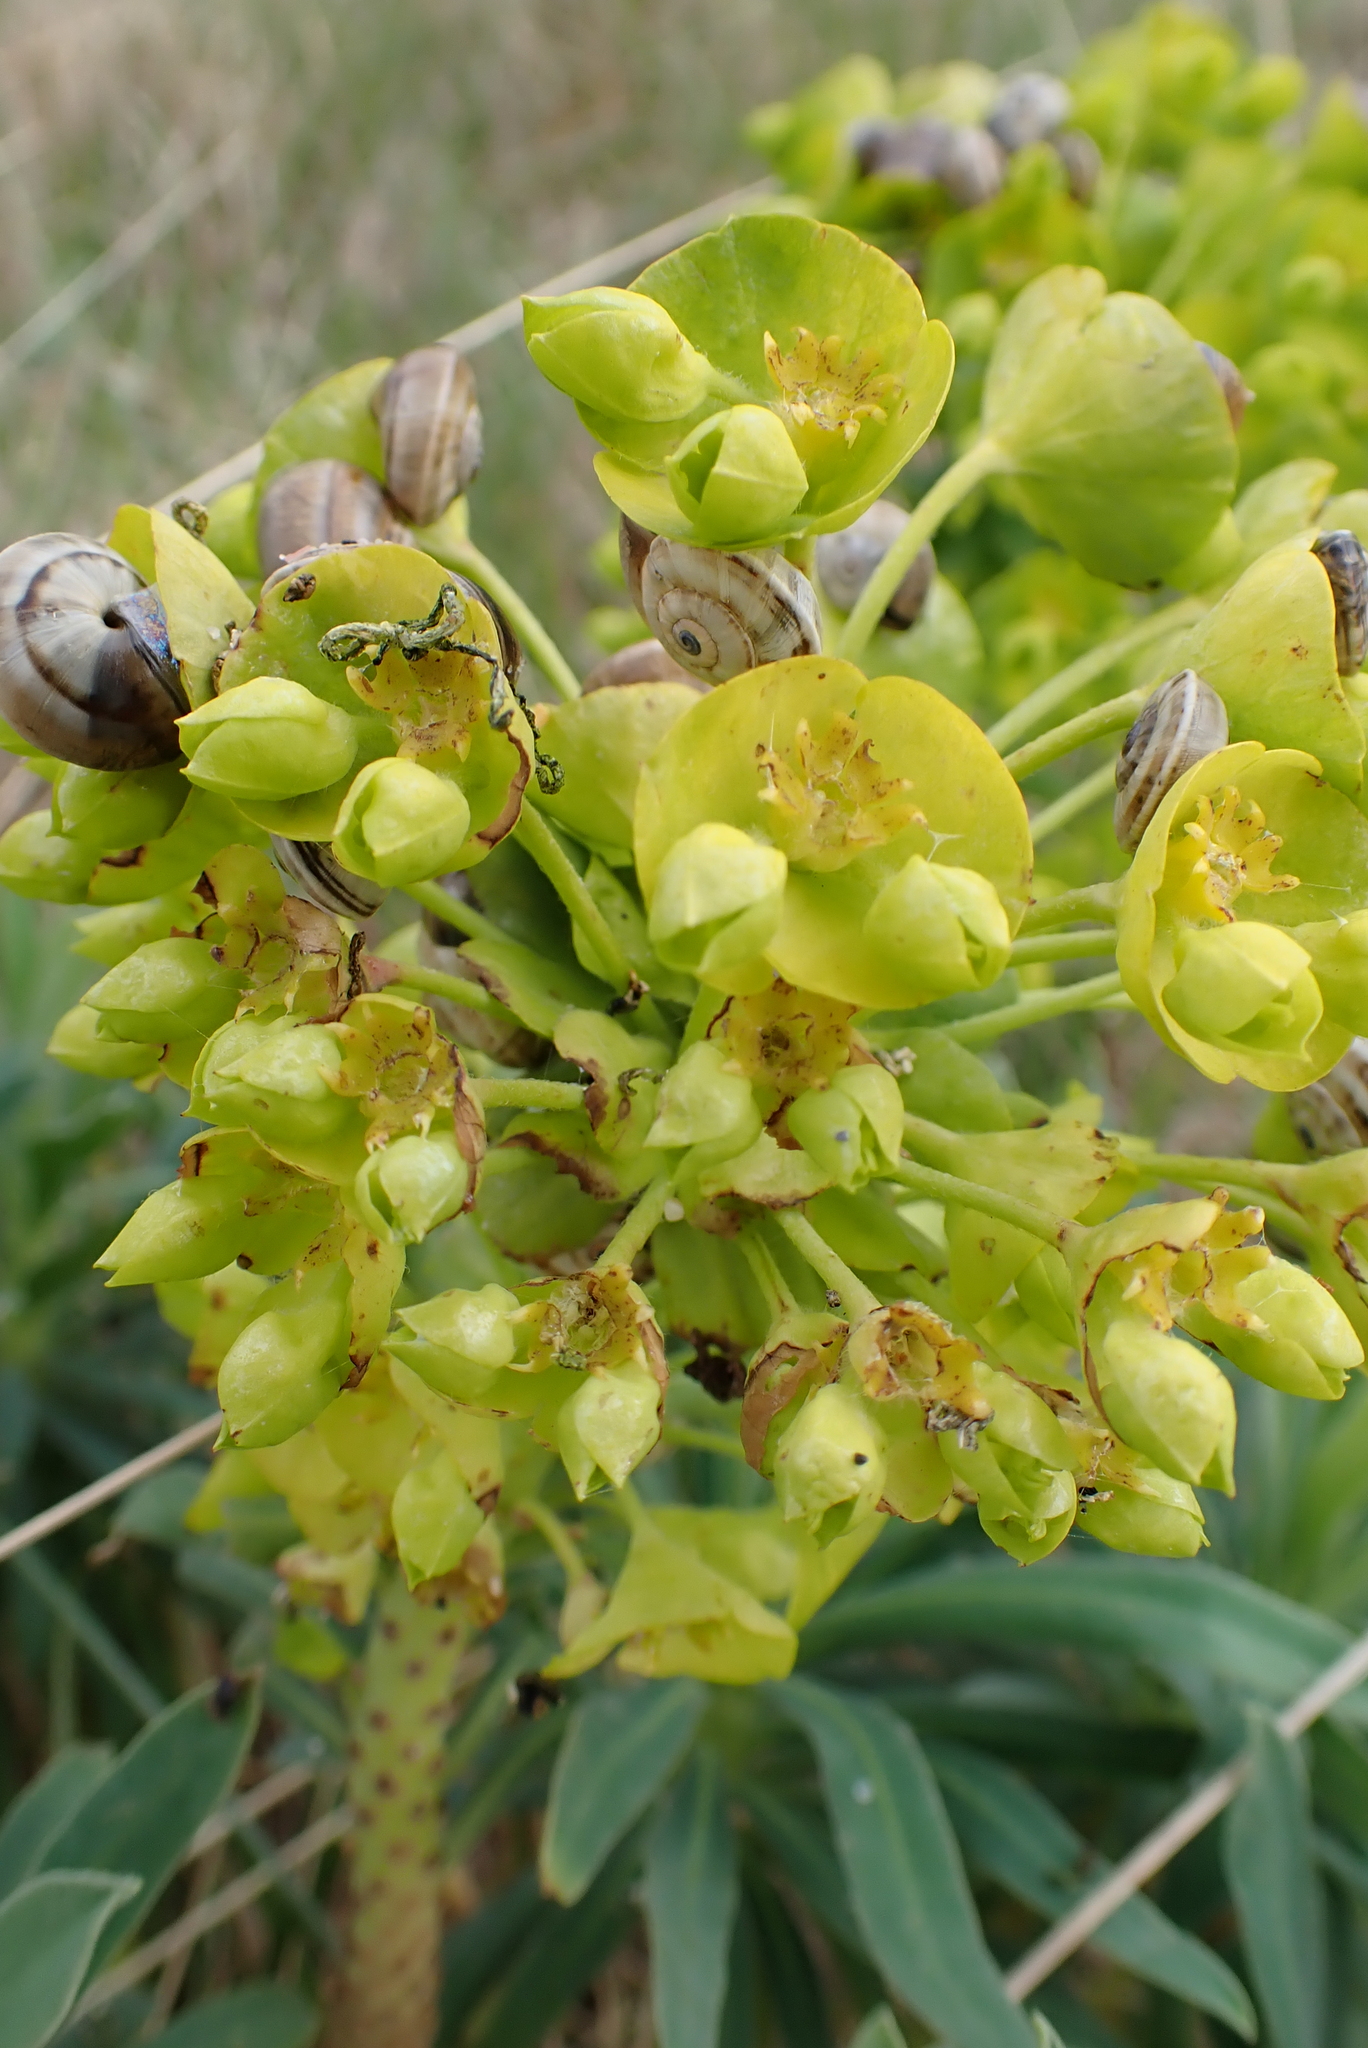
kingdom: Plantae
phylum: Tracheophyta
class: Magnoliopsida
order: Malpighiales
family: Euphorbiaceae
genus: Euphorbia
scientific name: Euphorbia characias
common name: Mediterranean spurge
